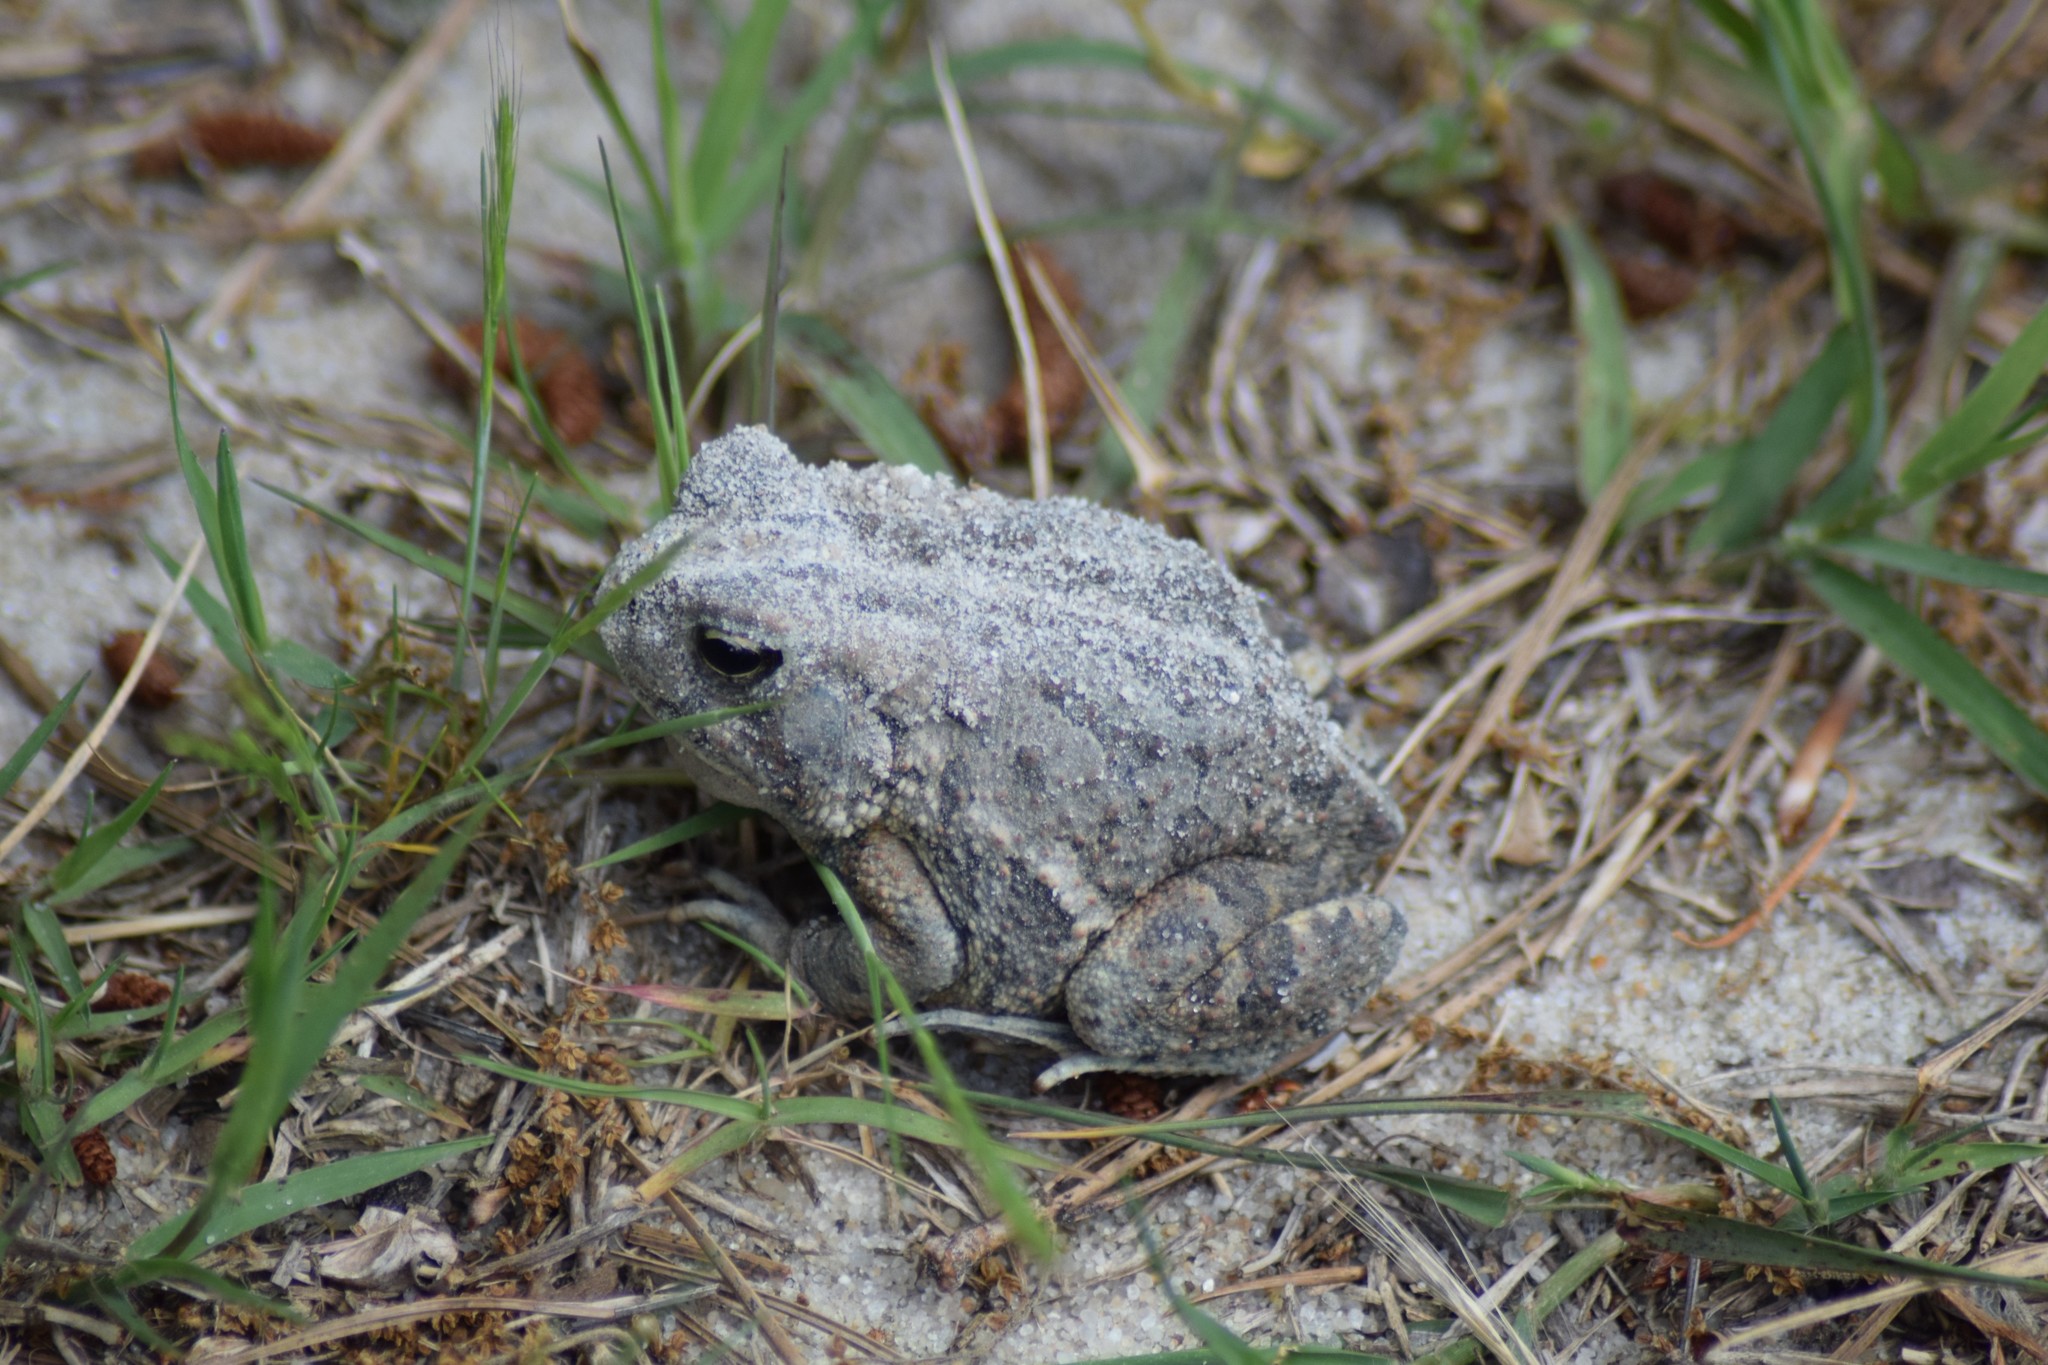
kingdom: Animalia
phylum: Chordata
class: Amphibia
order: Anura
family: Bufonidae
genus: Anaxyrus
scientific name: Anaxyrus fowleri
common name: Fowler's toad
